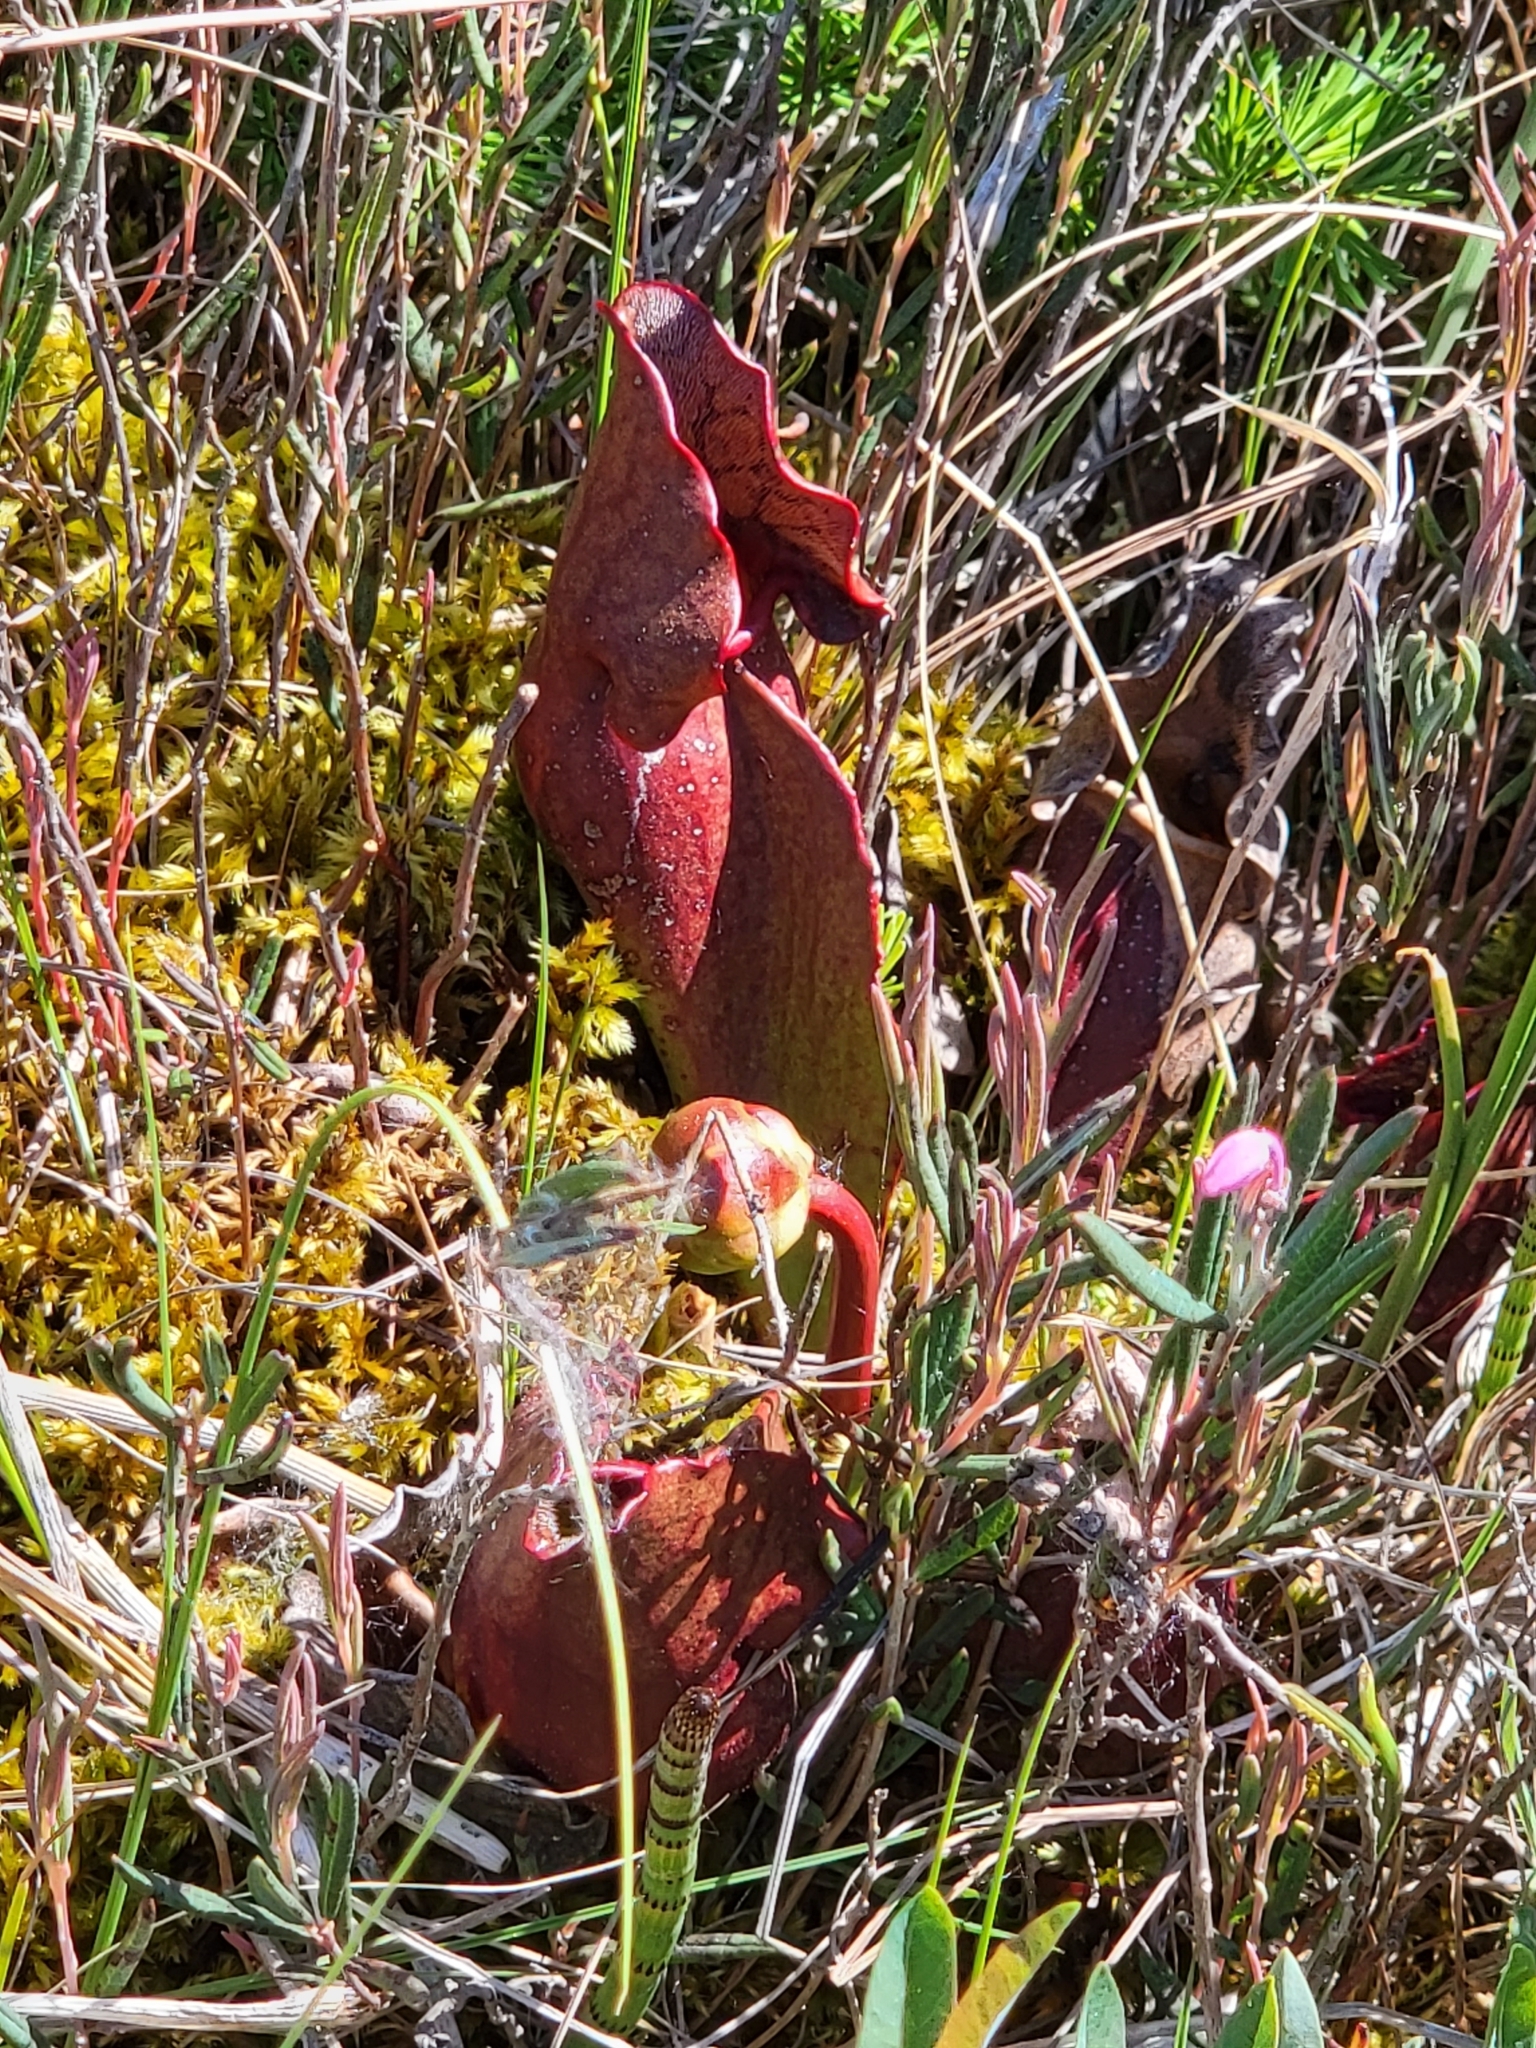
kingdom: Plantae
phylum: Tracheophyta
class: Magnoliopsida
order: Ericales
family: Sarraceniaceae
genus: Sarracenia
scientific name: Sarracenia purpurea
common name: Pitcherplant
